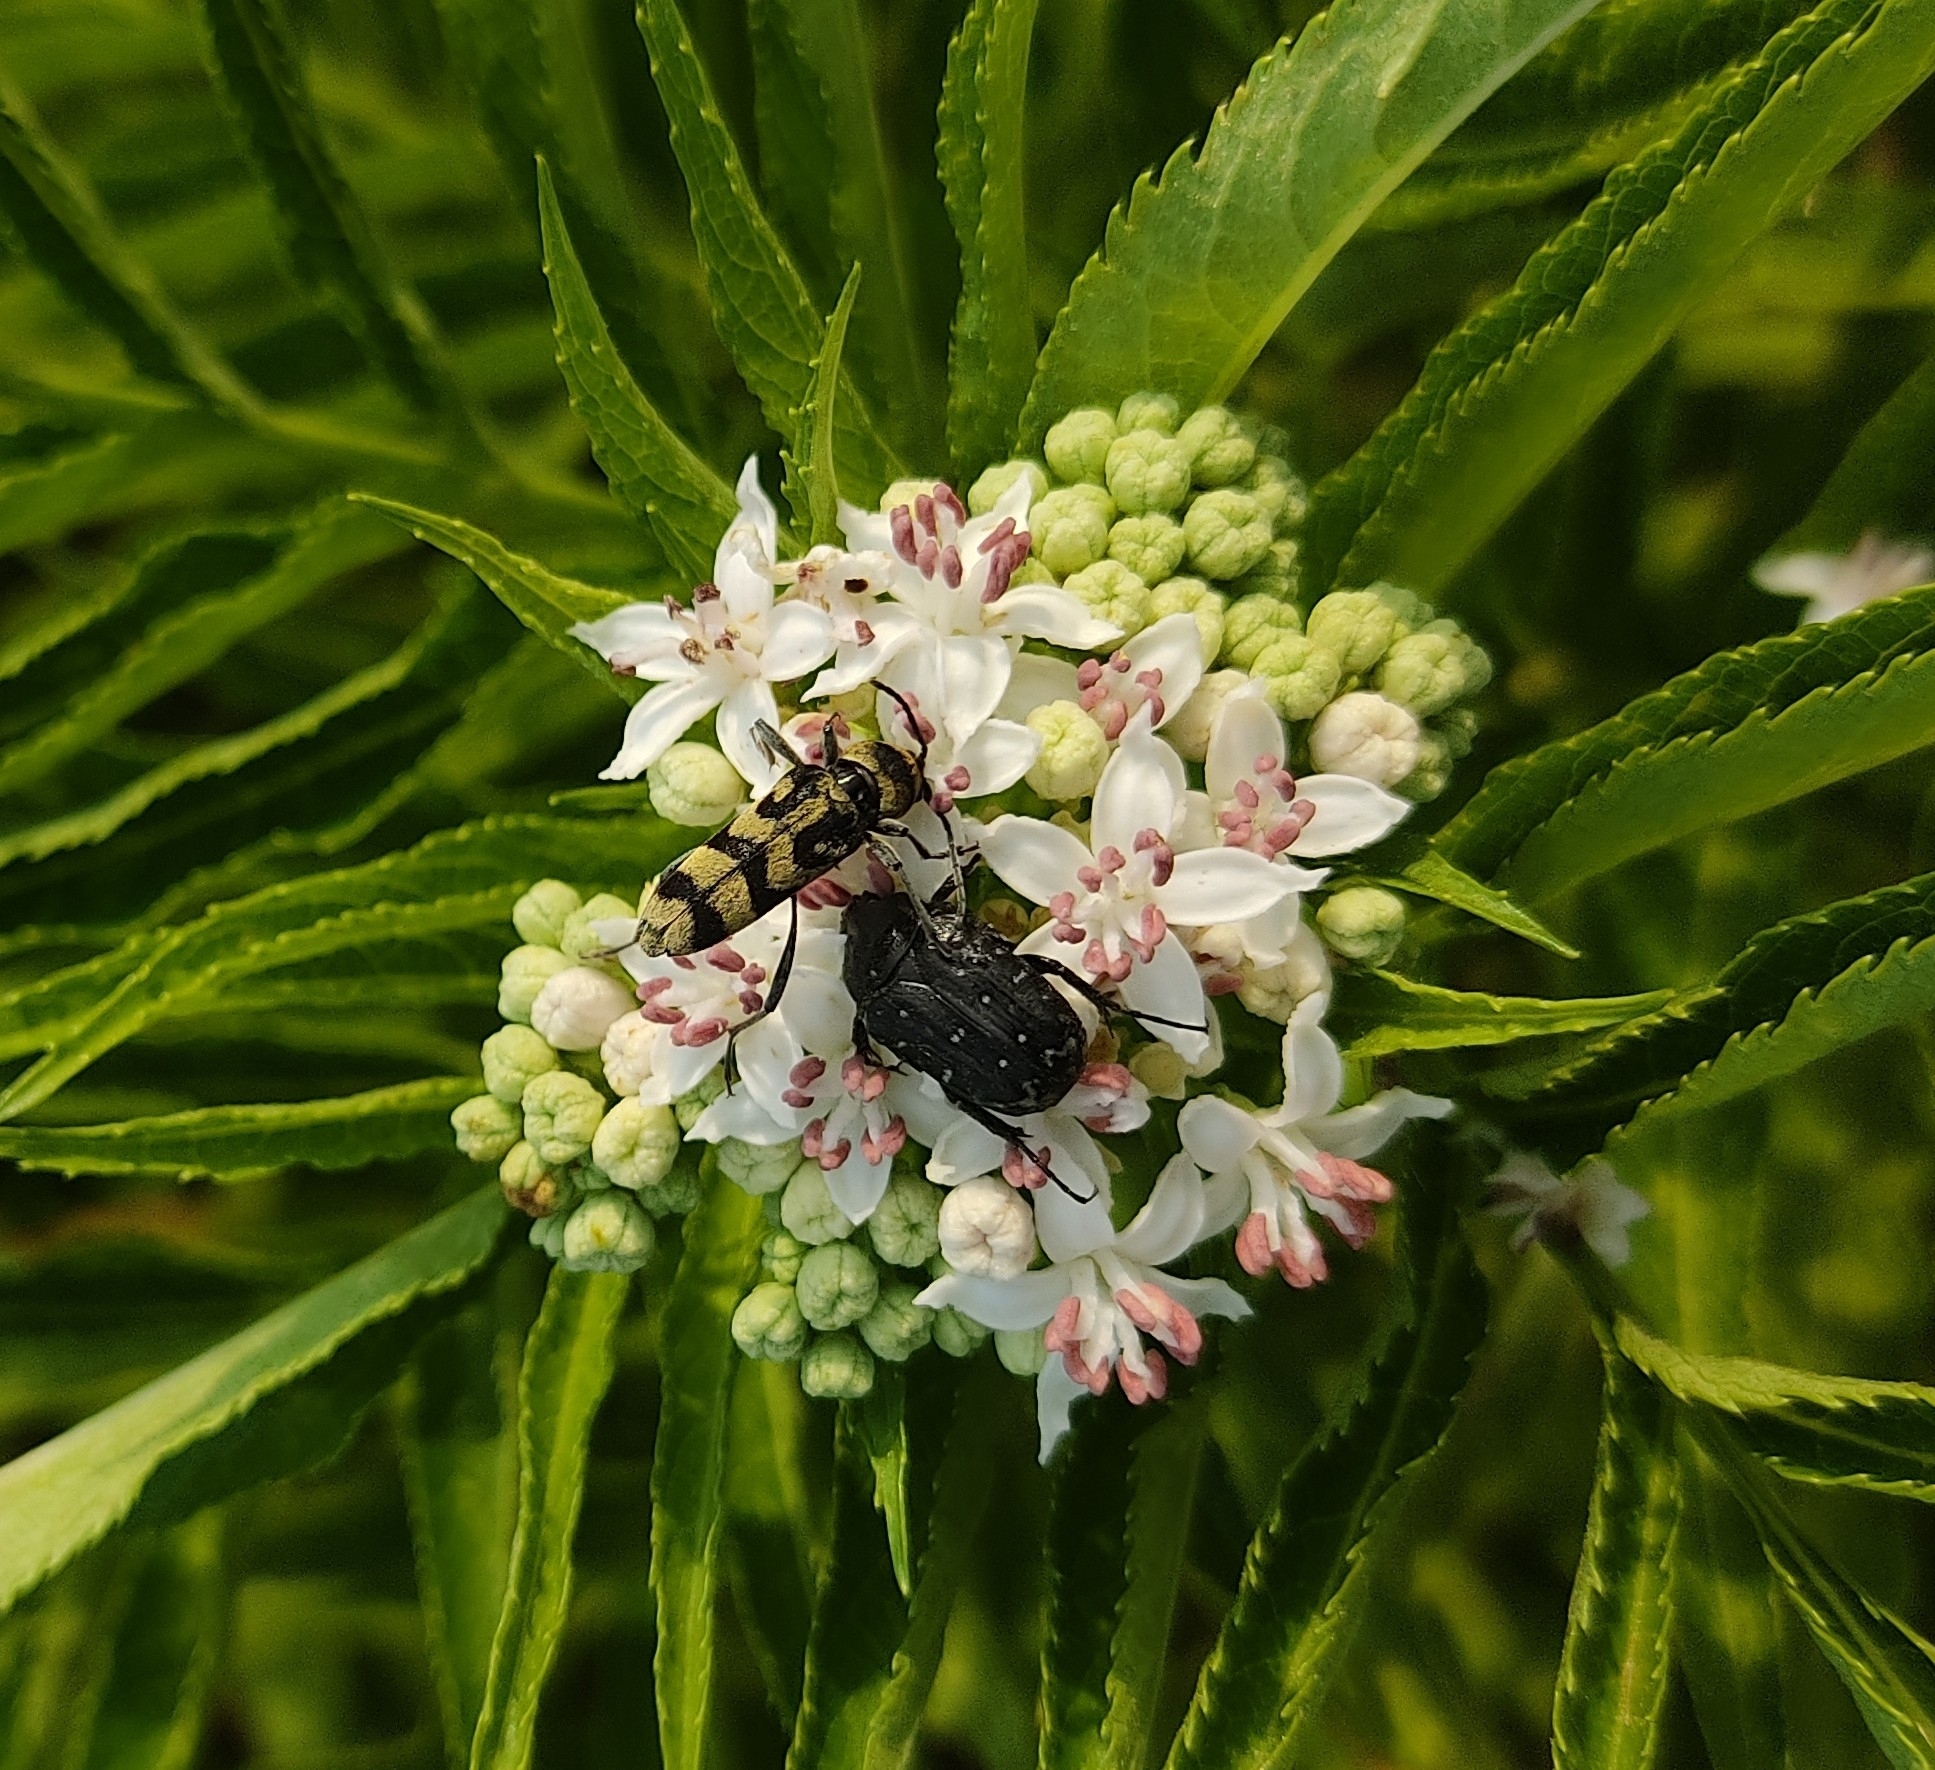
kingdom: Animalia
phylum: Arthropoda
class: Insecta
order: Coleoptera
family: Cerambycidae
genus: Chlorophorus
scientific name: Chlorophorus varius
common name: Grape wood borer
